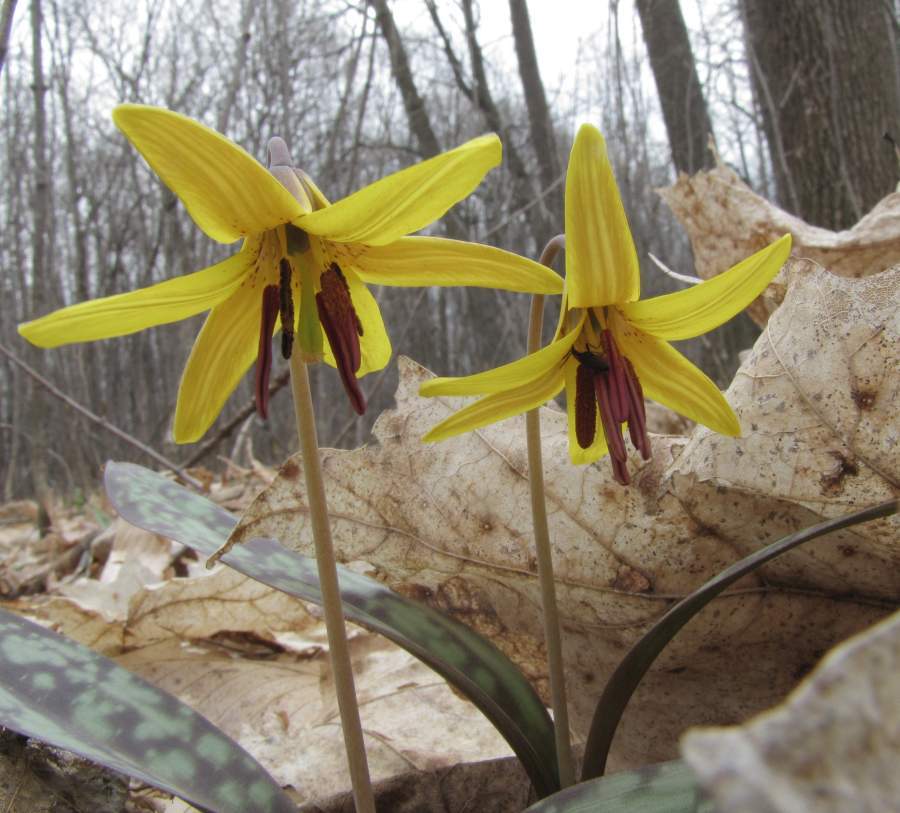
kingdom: Plantae
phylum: Tracheophyta
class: Liliopsida
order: Liliales
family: Liliaceae
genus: Erythronium
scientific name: Erythronium americanum
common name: Yellow adder's-tongue
